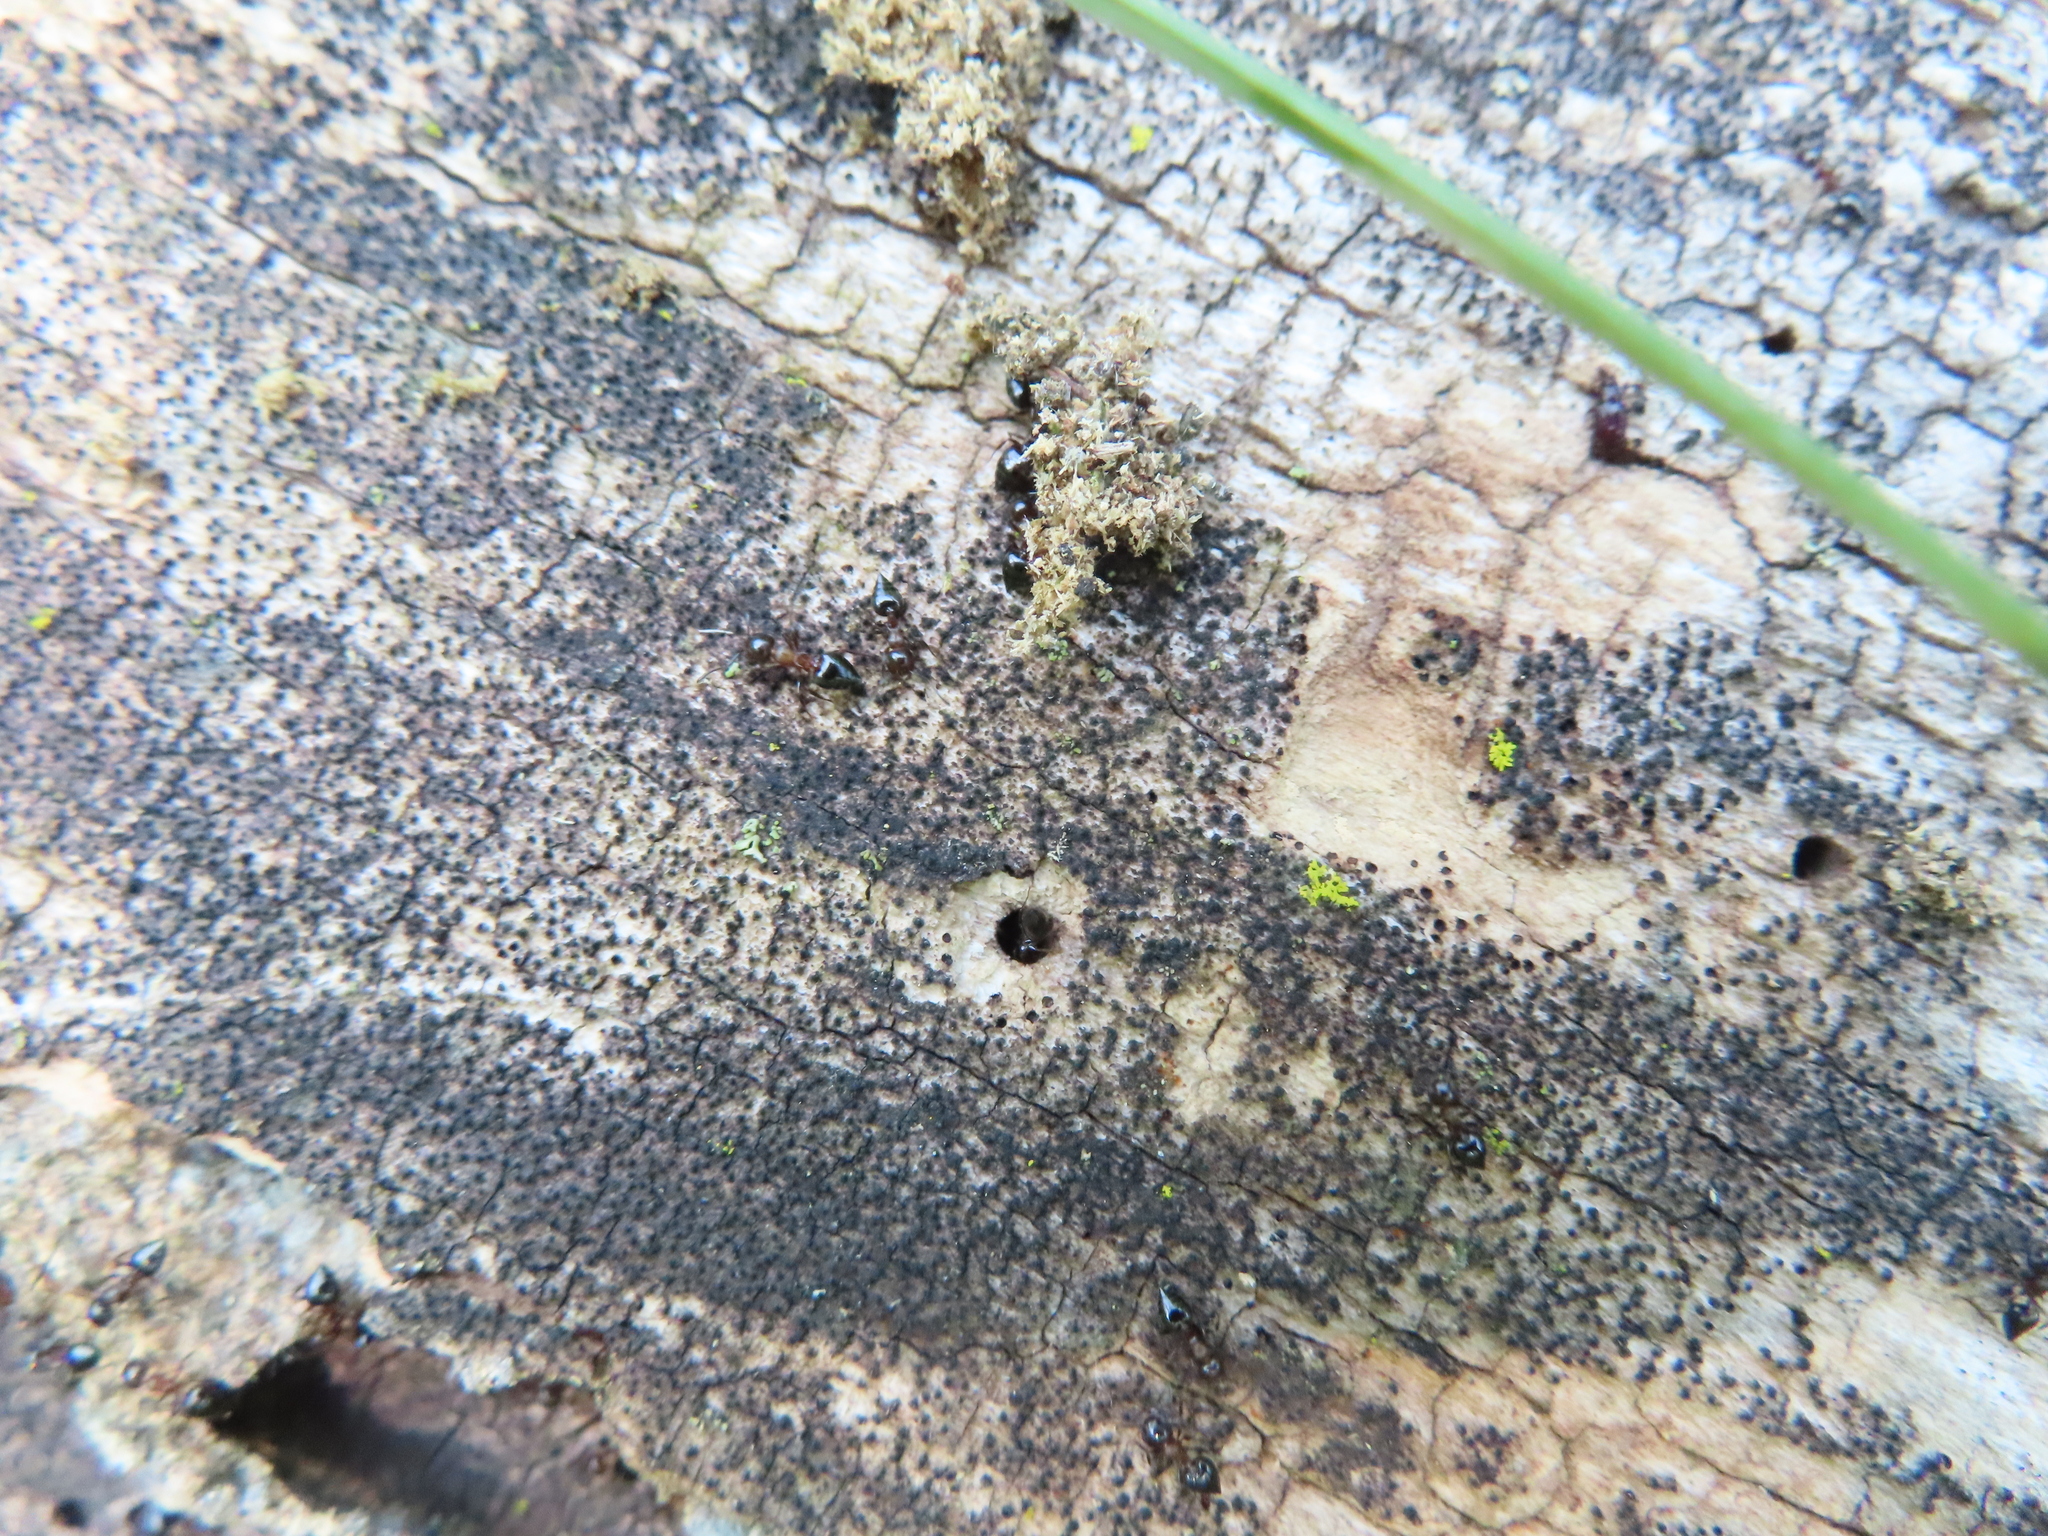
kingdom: Animalia
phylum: Arthropoda
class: Insecta
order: Hymenoptera
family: Formicidae
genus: Crematogaster
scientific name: Crematogaster cerasi
